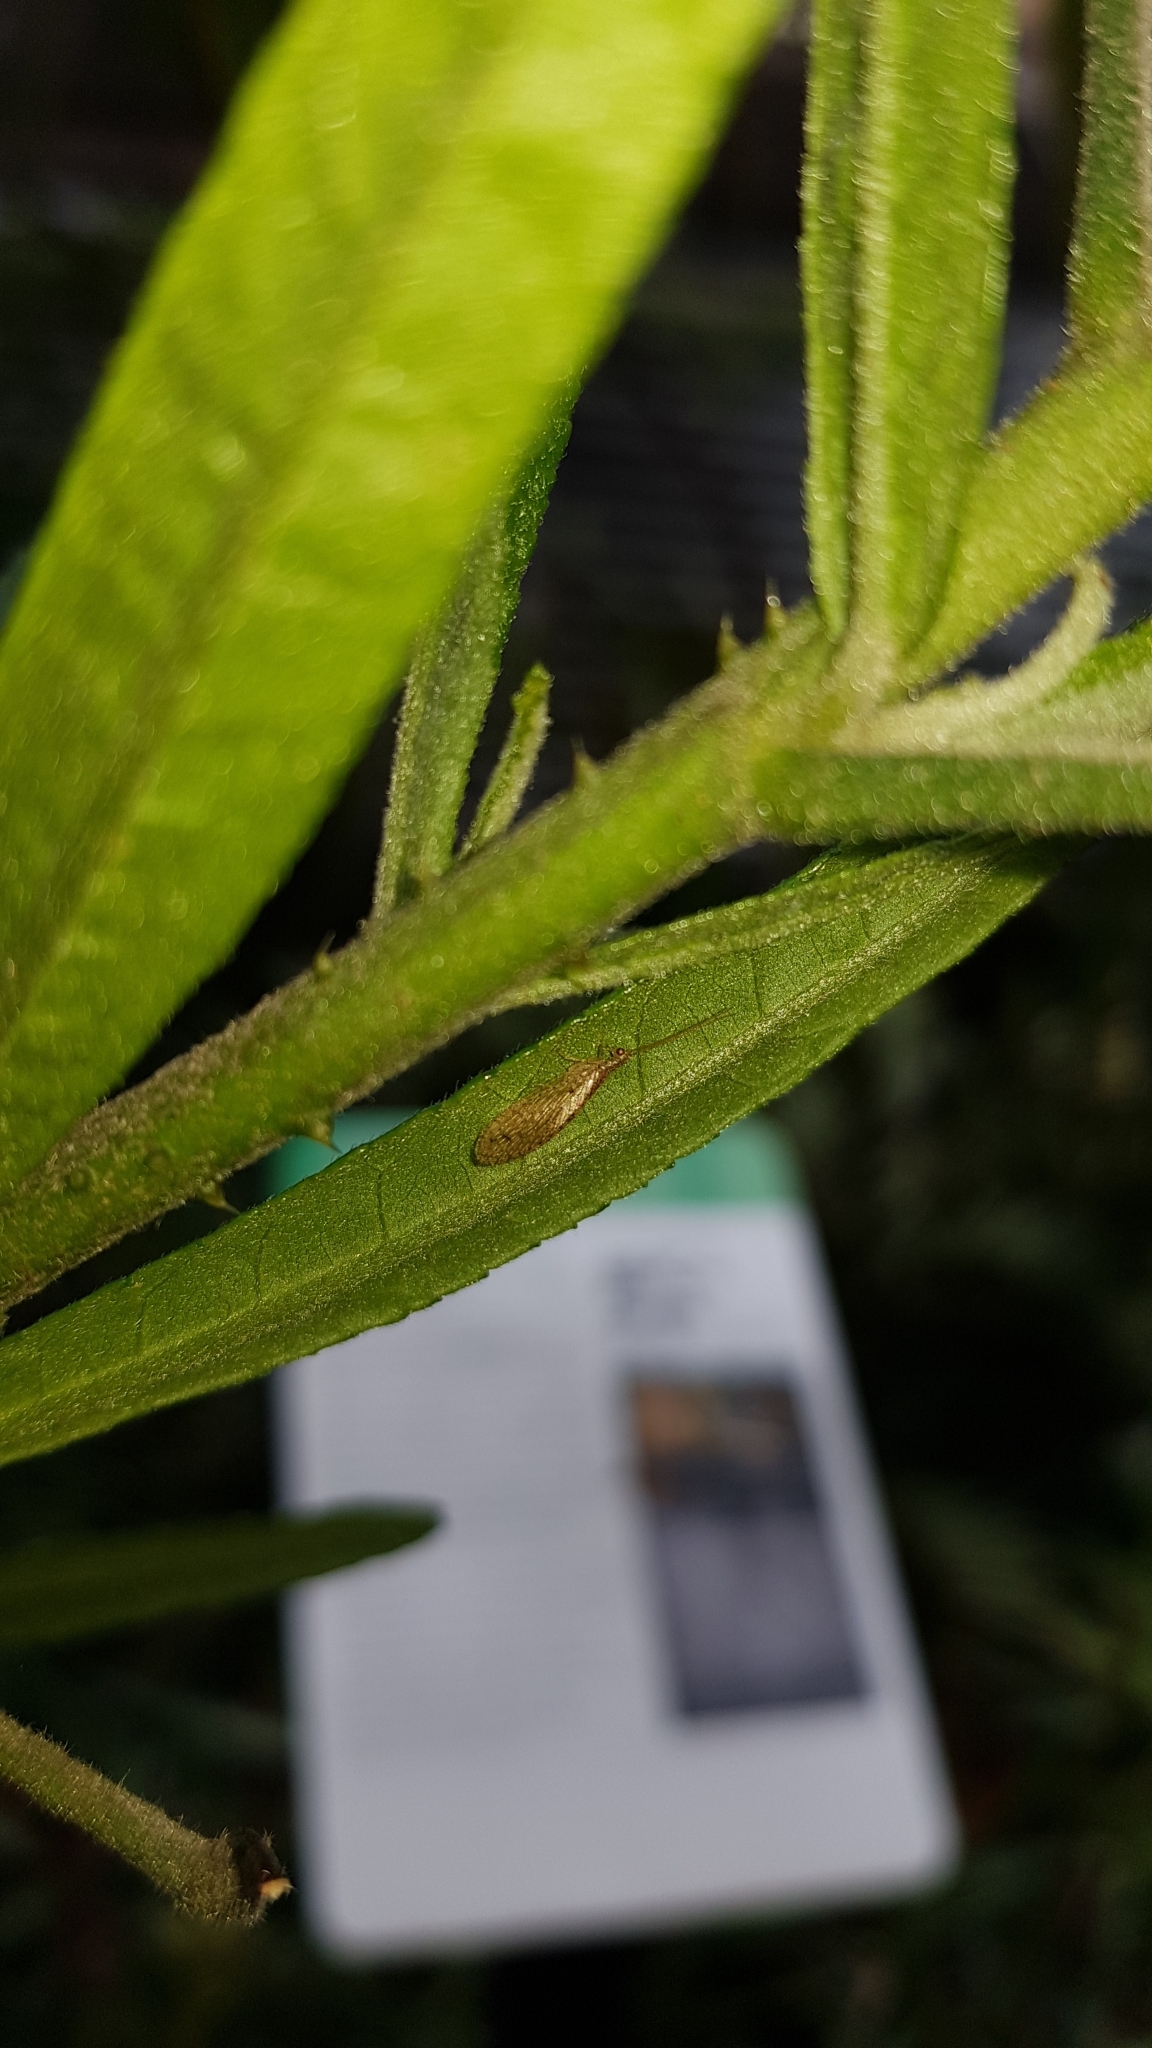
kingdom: Animalia
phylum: Arthropoda
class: Insecta
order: Neuroptera
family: Hemerobiidae
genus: Micromus
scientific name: Micromus tasmaniae
